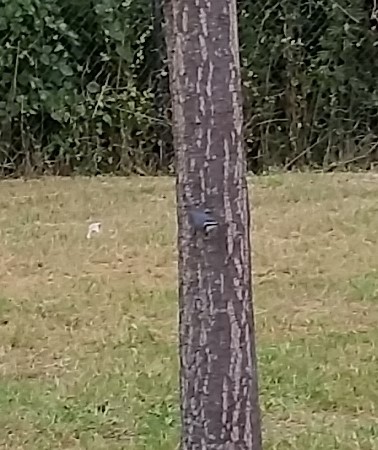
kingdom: Animalia
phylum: Chordata
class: Aves
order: Passeriformes
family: Sittidae
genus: Sitta
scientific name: Sitta canadensis
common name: Red-breasted nuthatch
